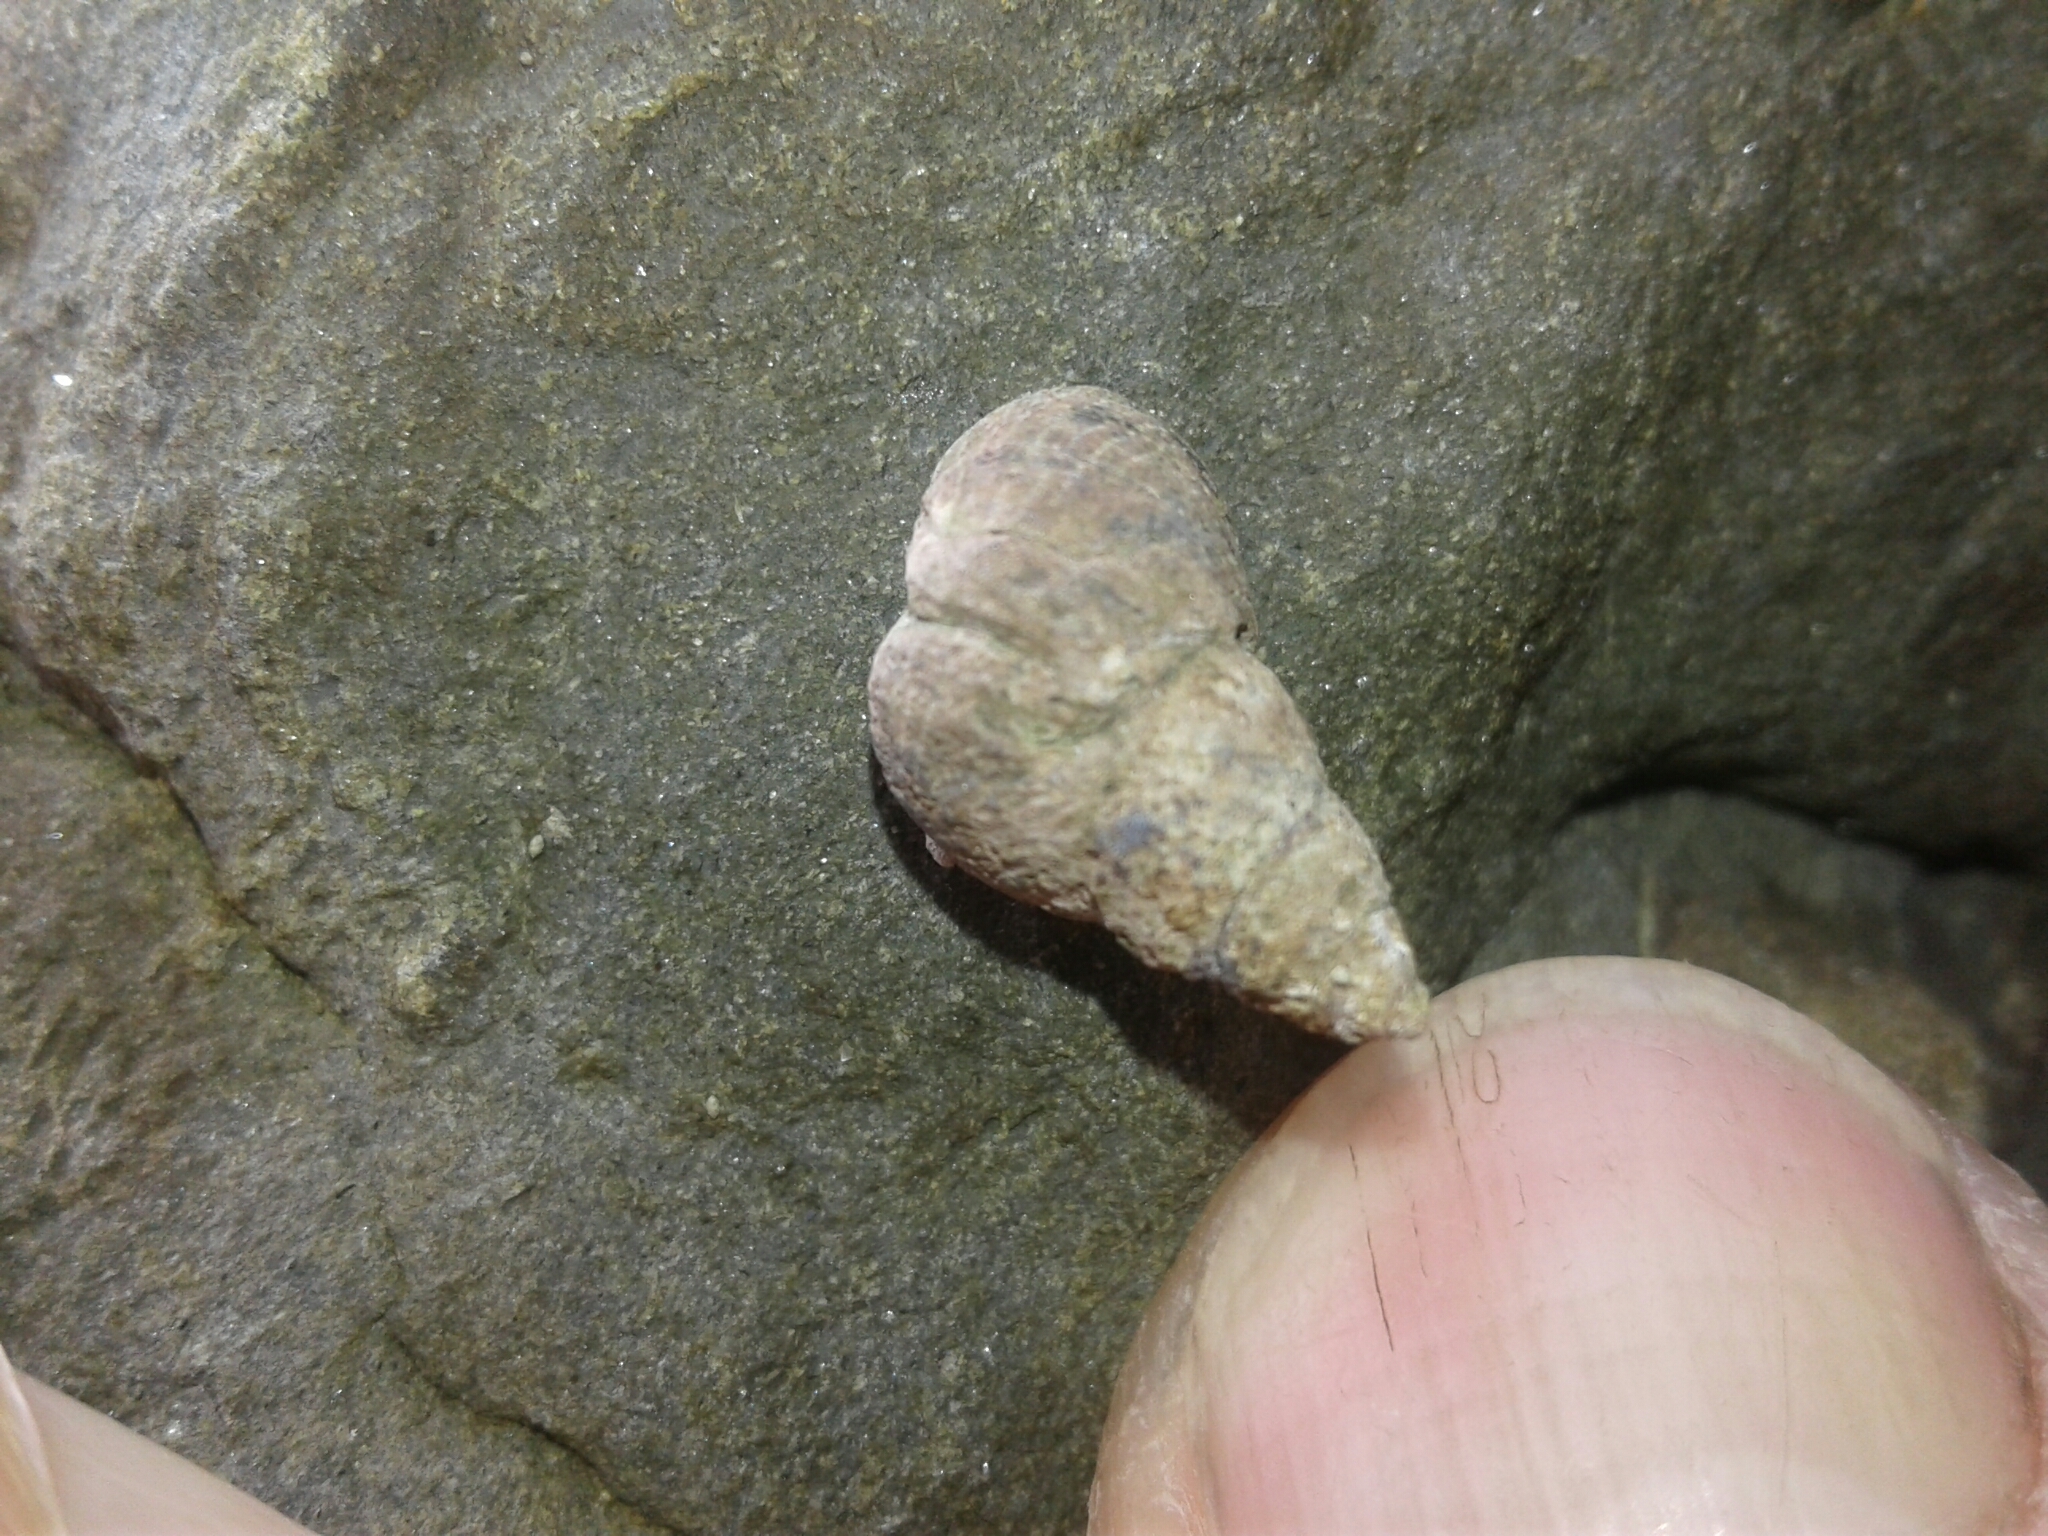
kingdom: Animalia
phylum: Mollusca
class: Gastropoda
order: Littorinimorpha
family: Littorinidae
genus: Austrolittorina
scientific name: Austrolittorina cincta
